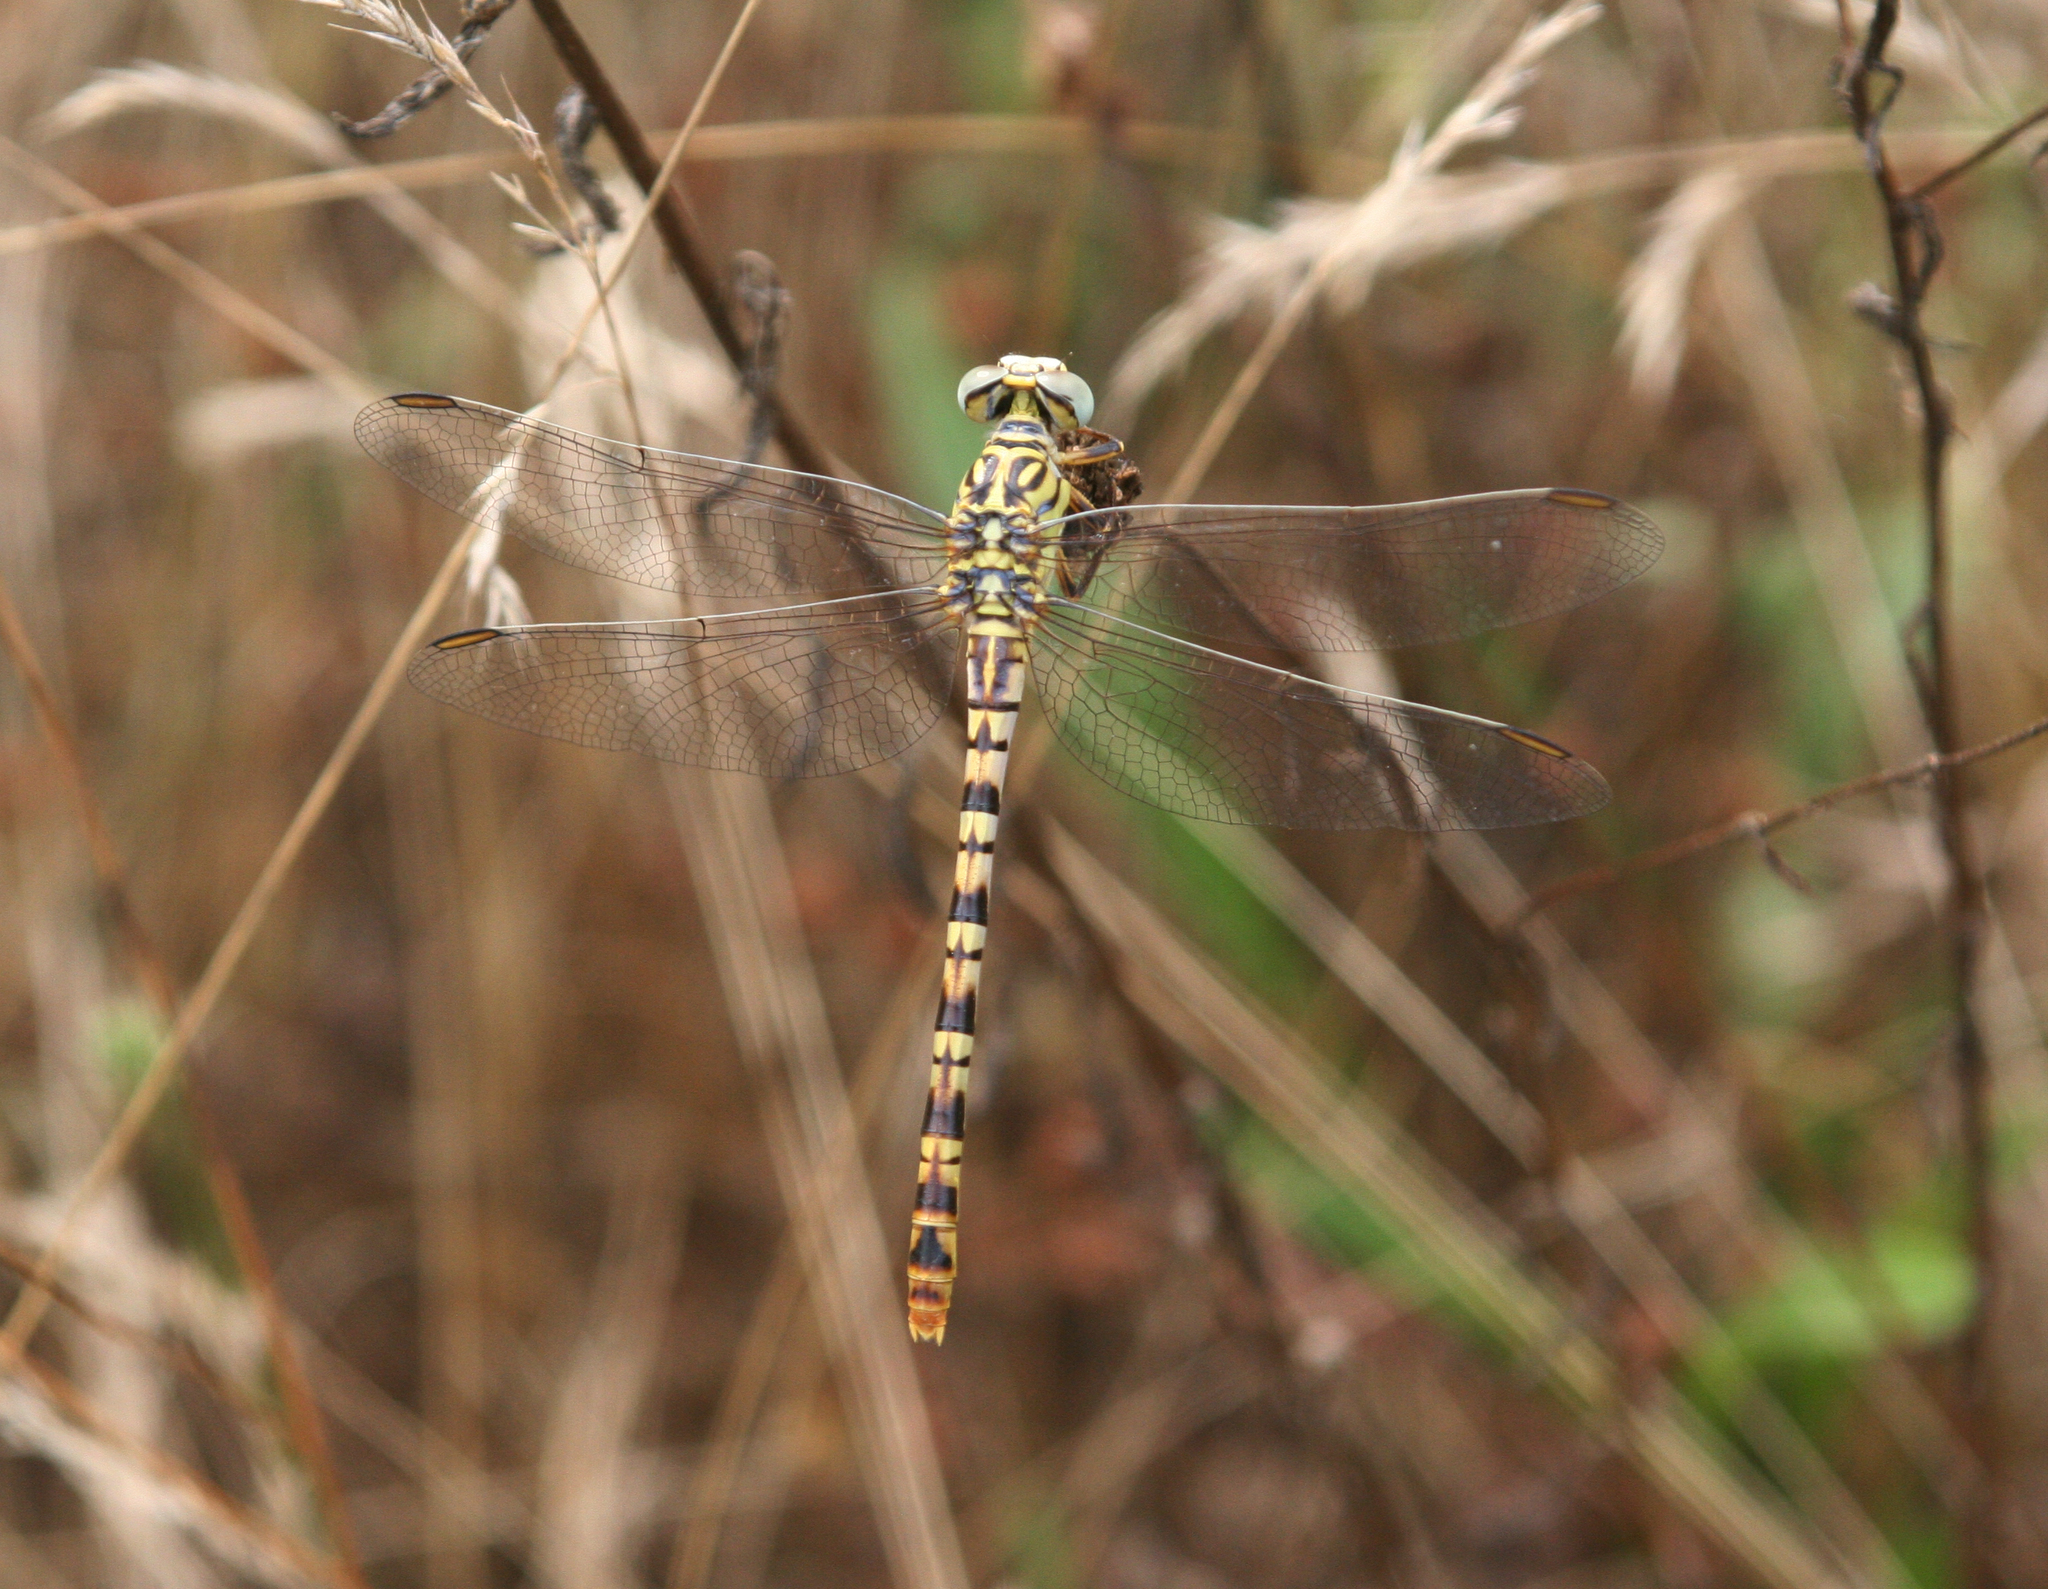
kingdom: Animalia
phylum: Arthropoda
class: Insecta
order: Odonata
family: Gomphidae
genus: Onychogomphus
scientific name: Onychogomphus flexuosus
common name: Waved pincertail
